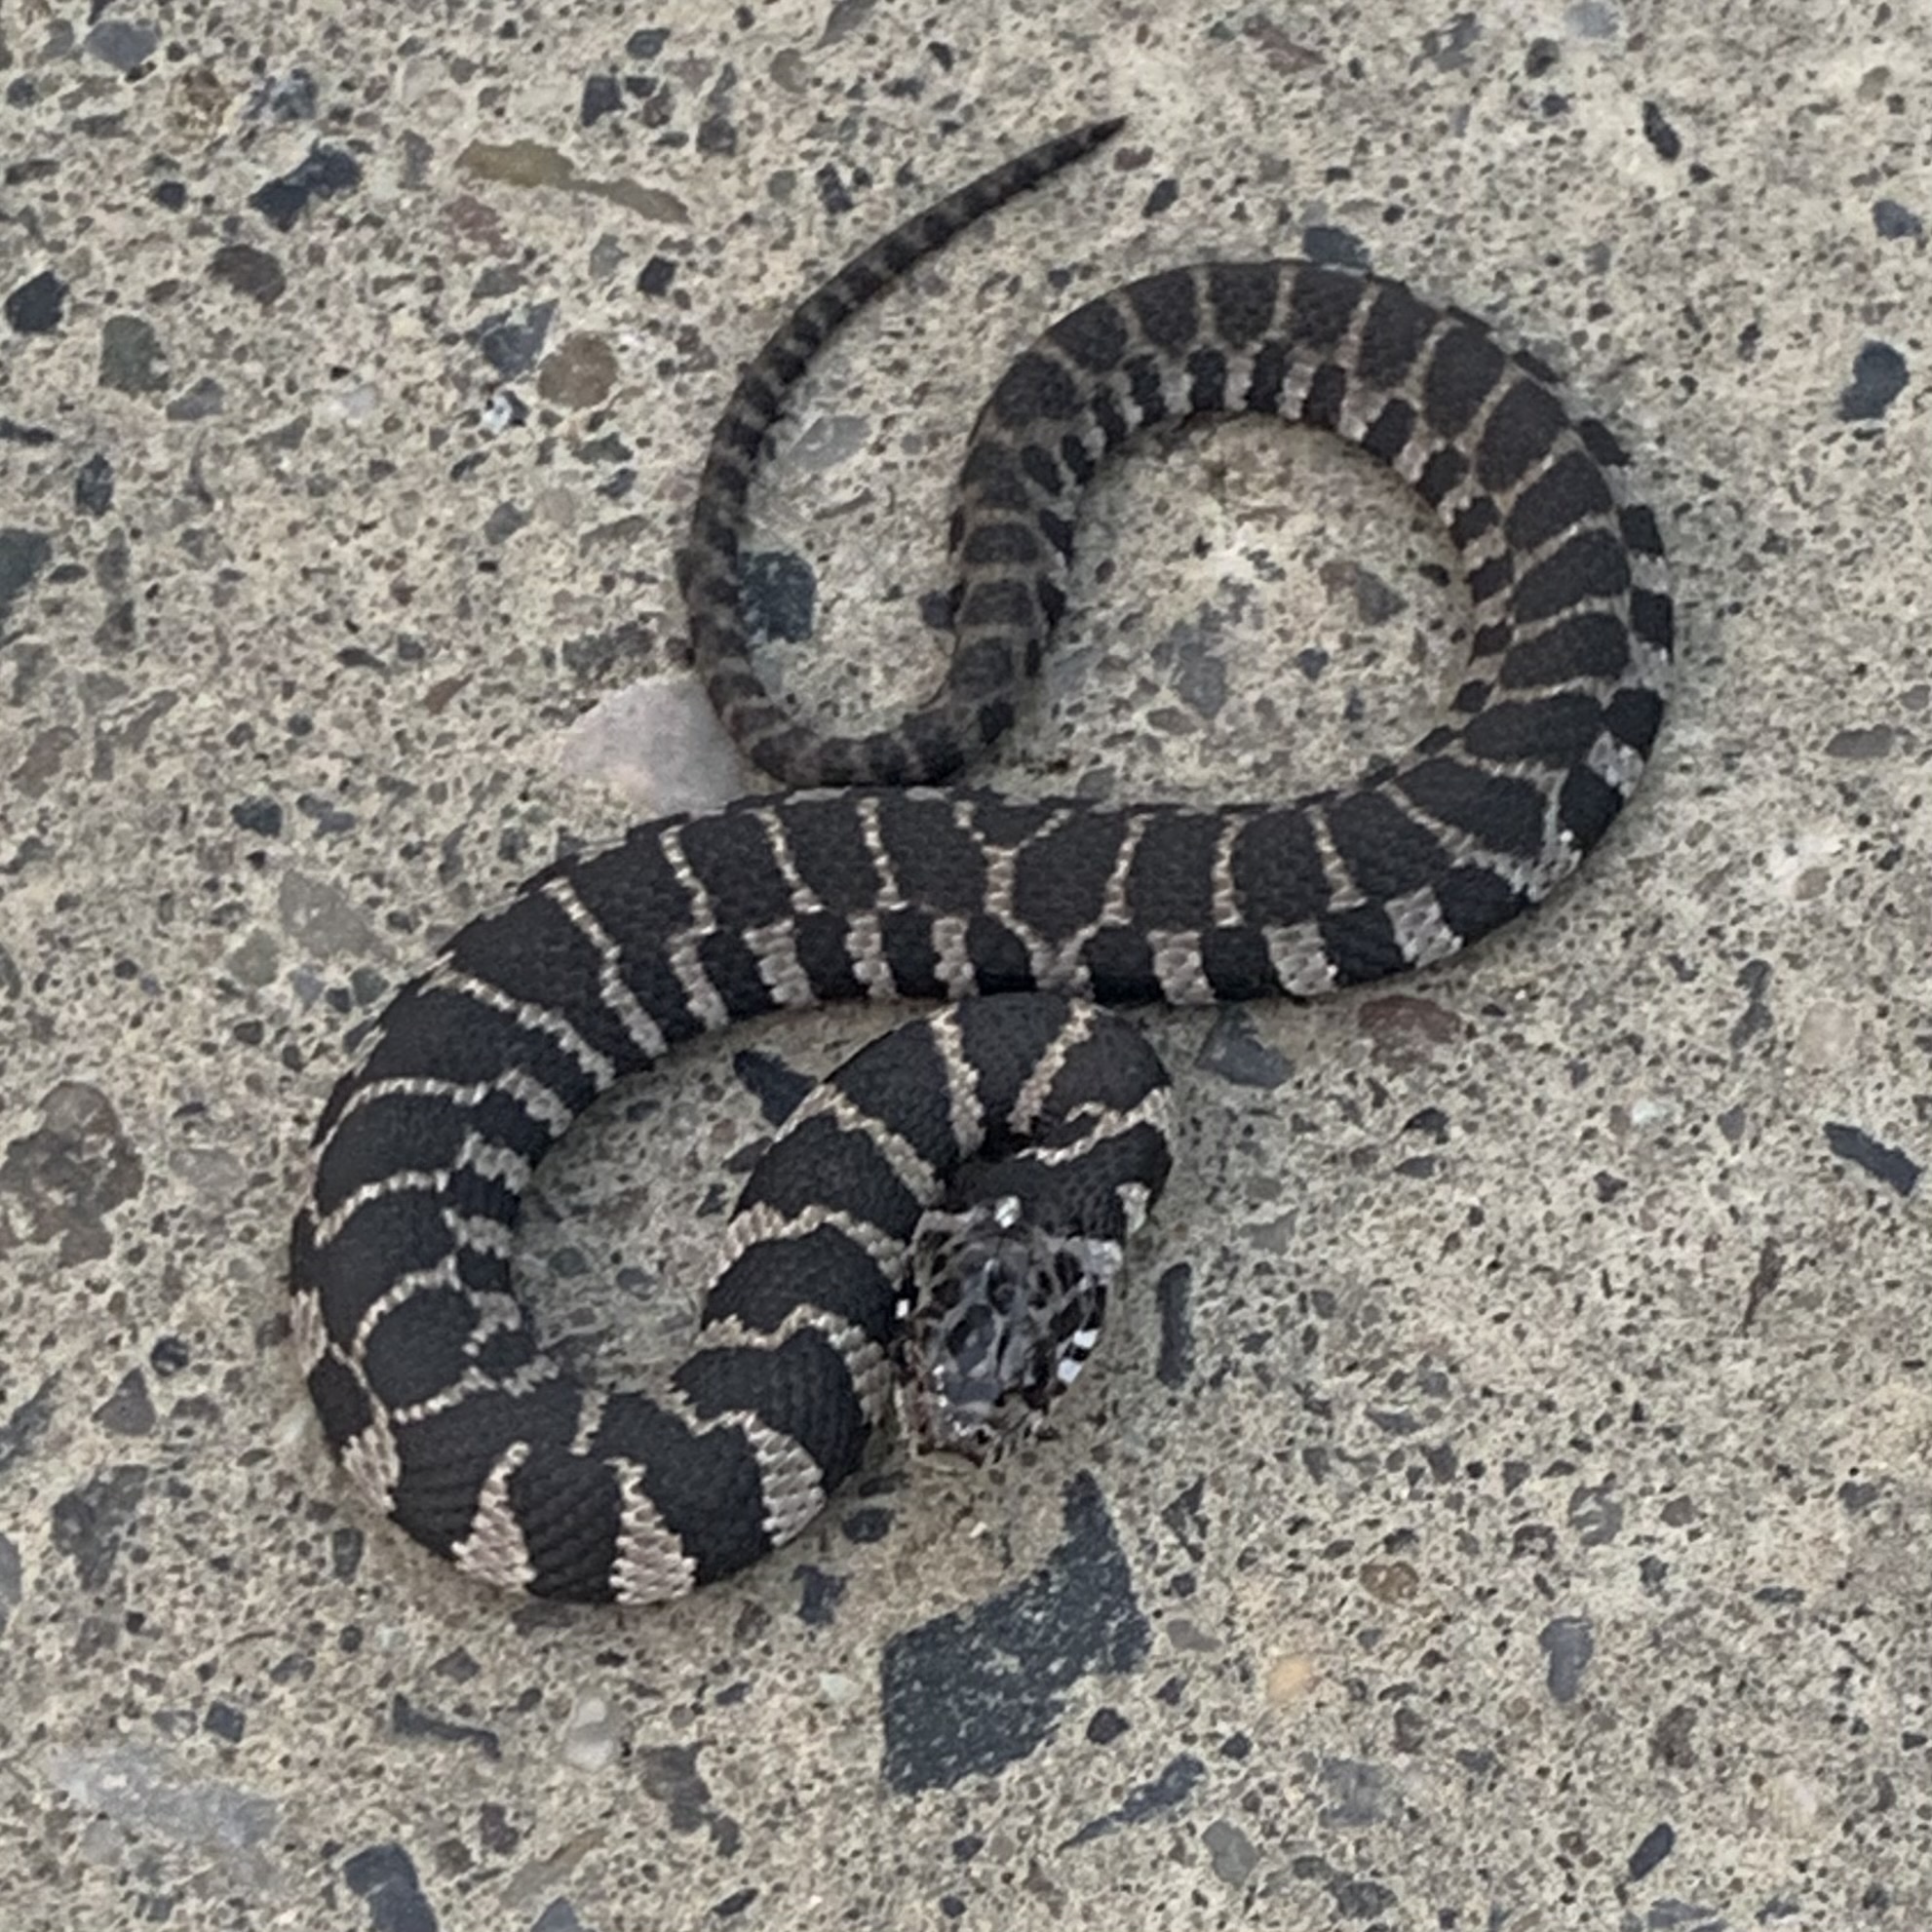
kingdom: Animalia
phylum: Chordata
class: Squamata
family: Colubridae
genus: Nerodia
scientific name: Nerodia sipedon
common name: Northern water snake
